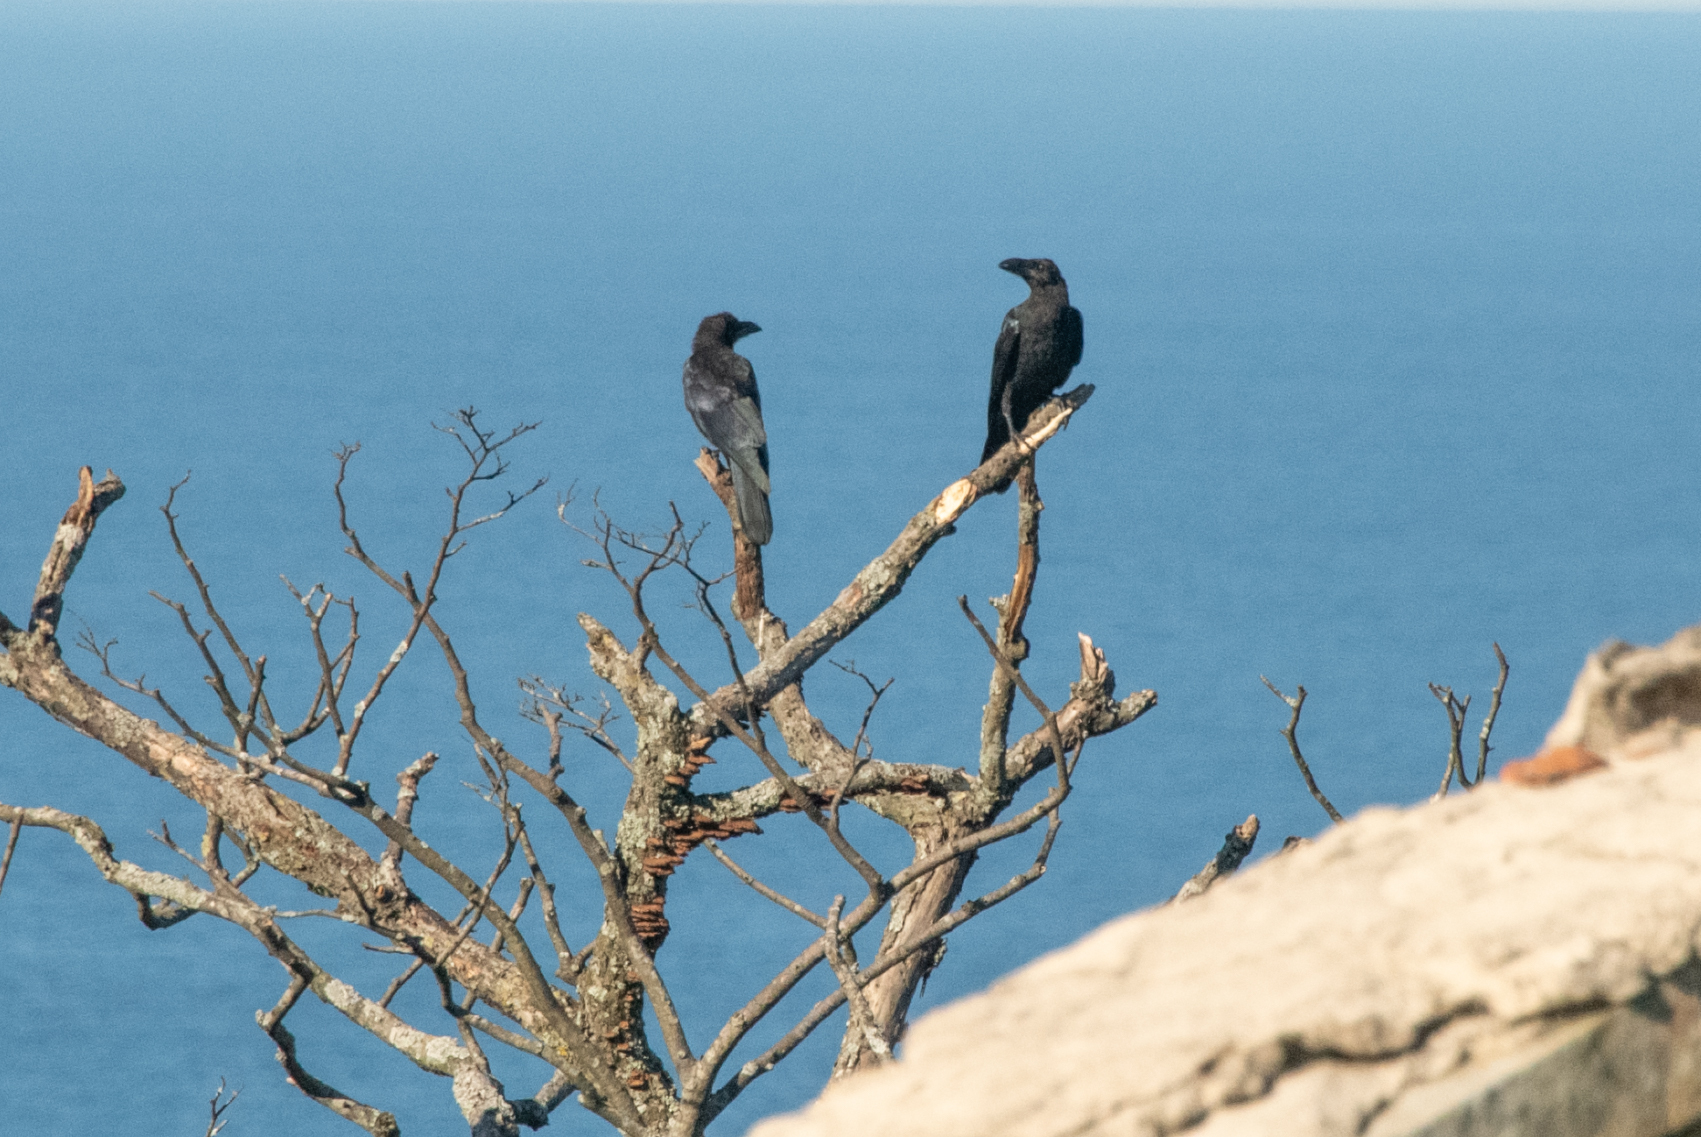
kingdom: Animalia
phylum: Chordata
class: Aves
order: Passeriformes
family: Corvidae
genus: Corvus
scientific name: Corvus macrorhynchos
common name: Large-billed crow
